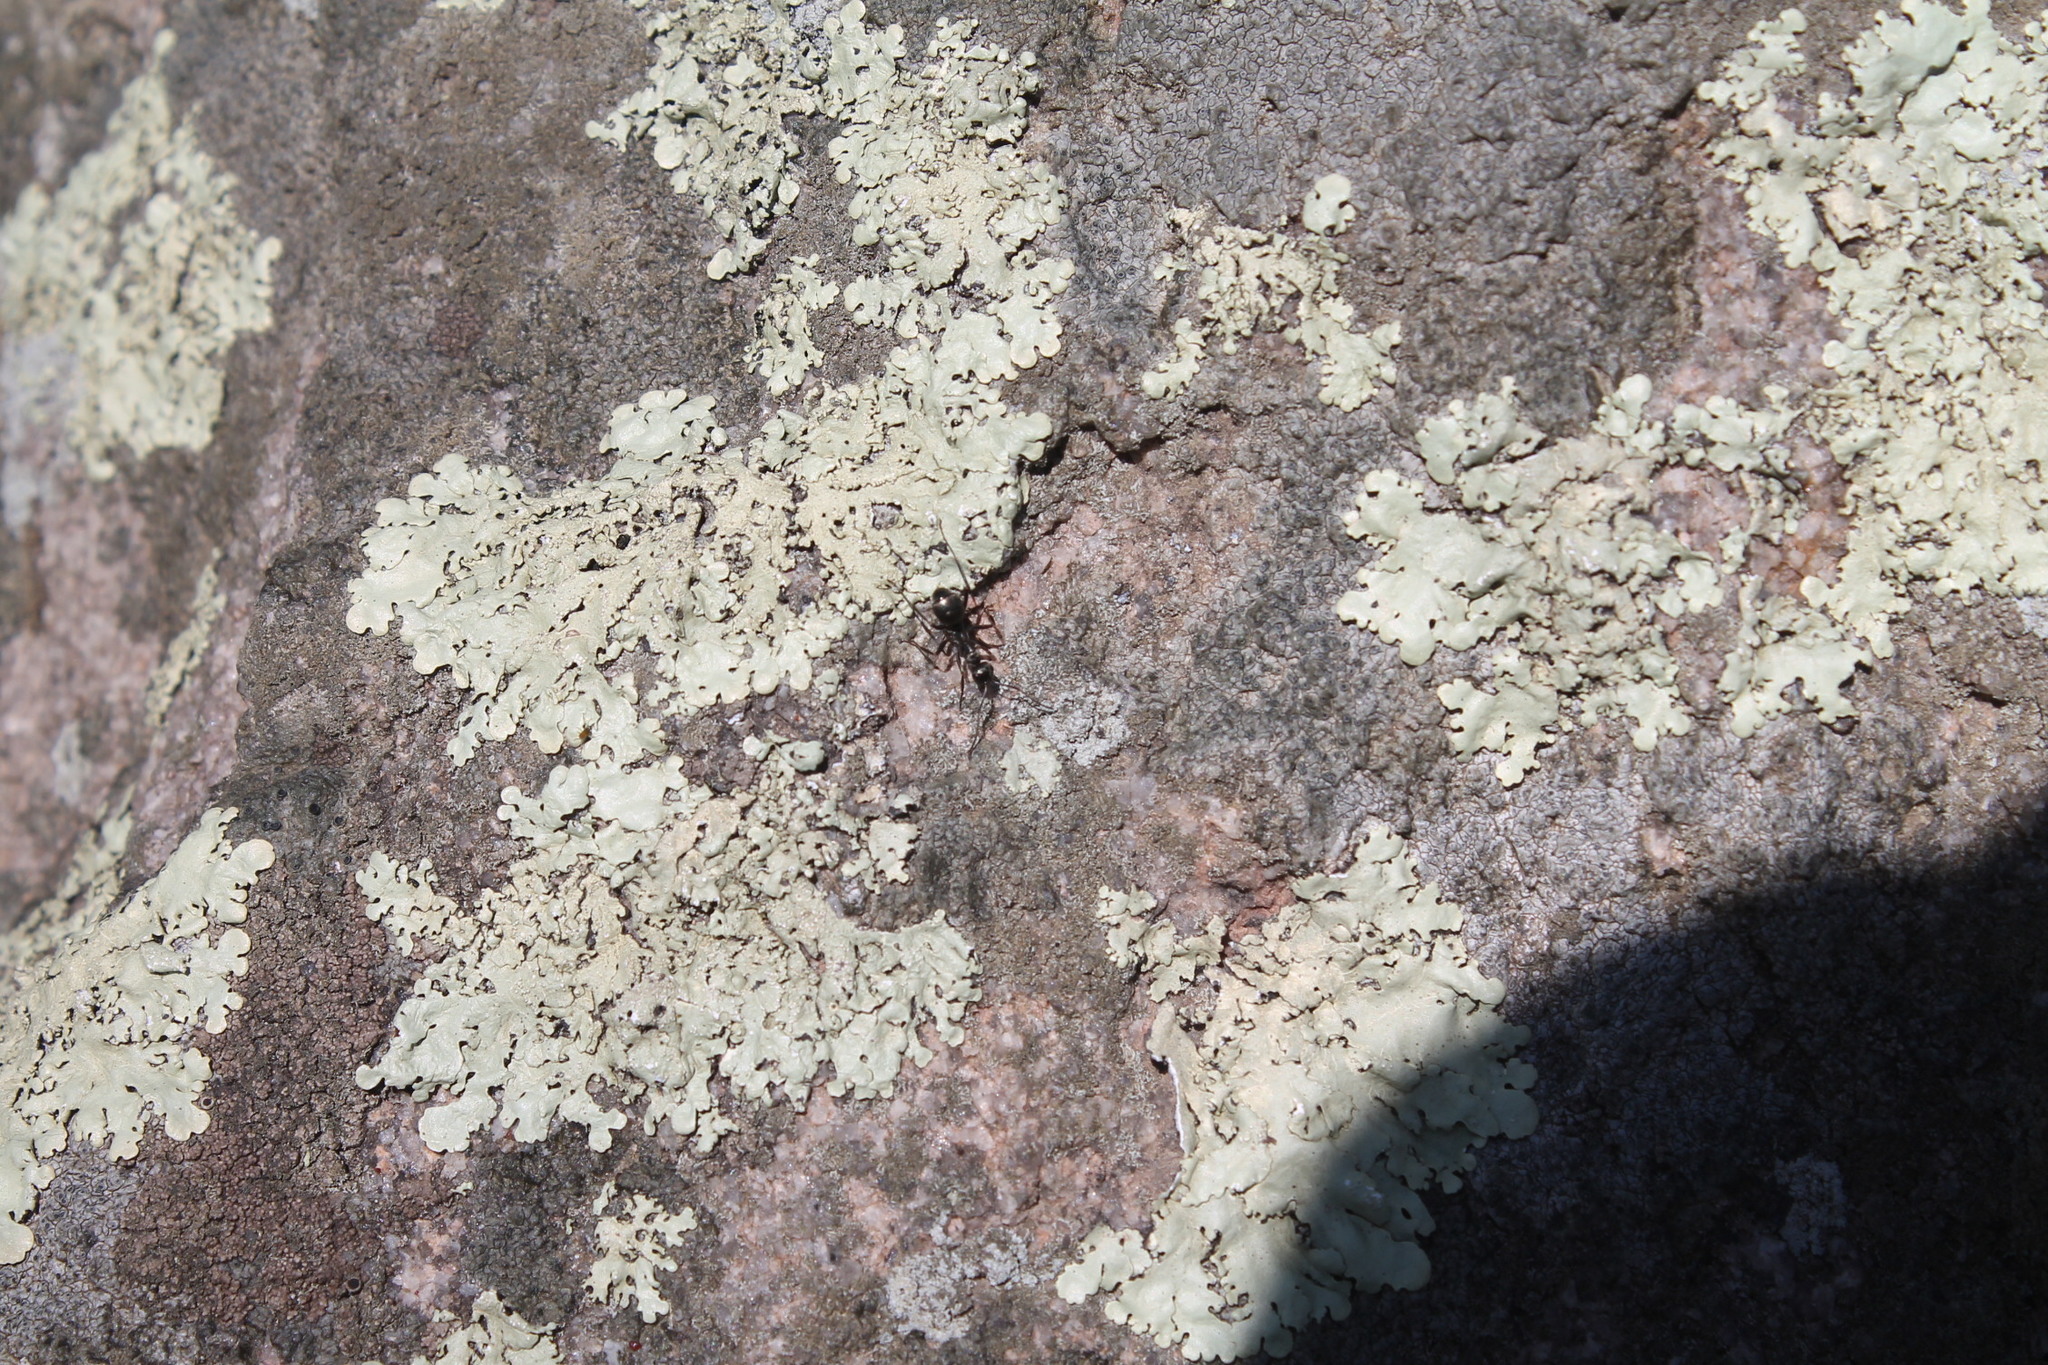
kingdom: Animalia
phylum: Arthropoda
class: Insecta
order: Hymenoptera
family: Formicidae
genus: Camponotus
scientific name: Camponotus pennsylvanicus
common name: Black carpenter ant
